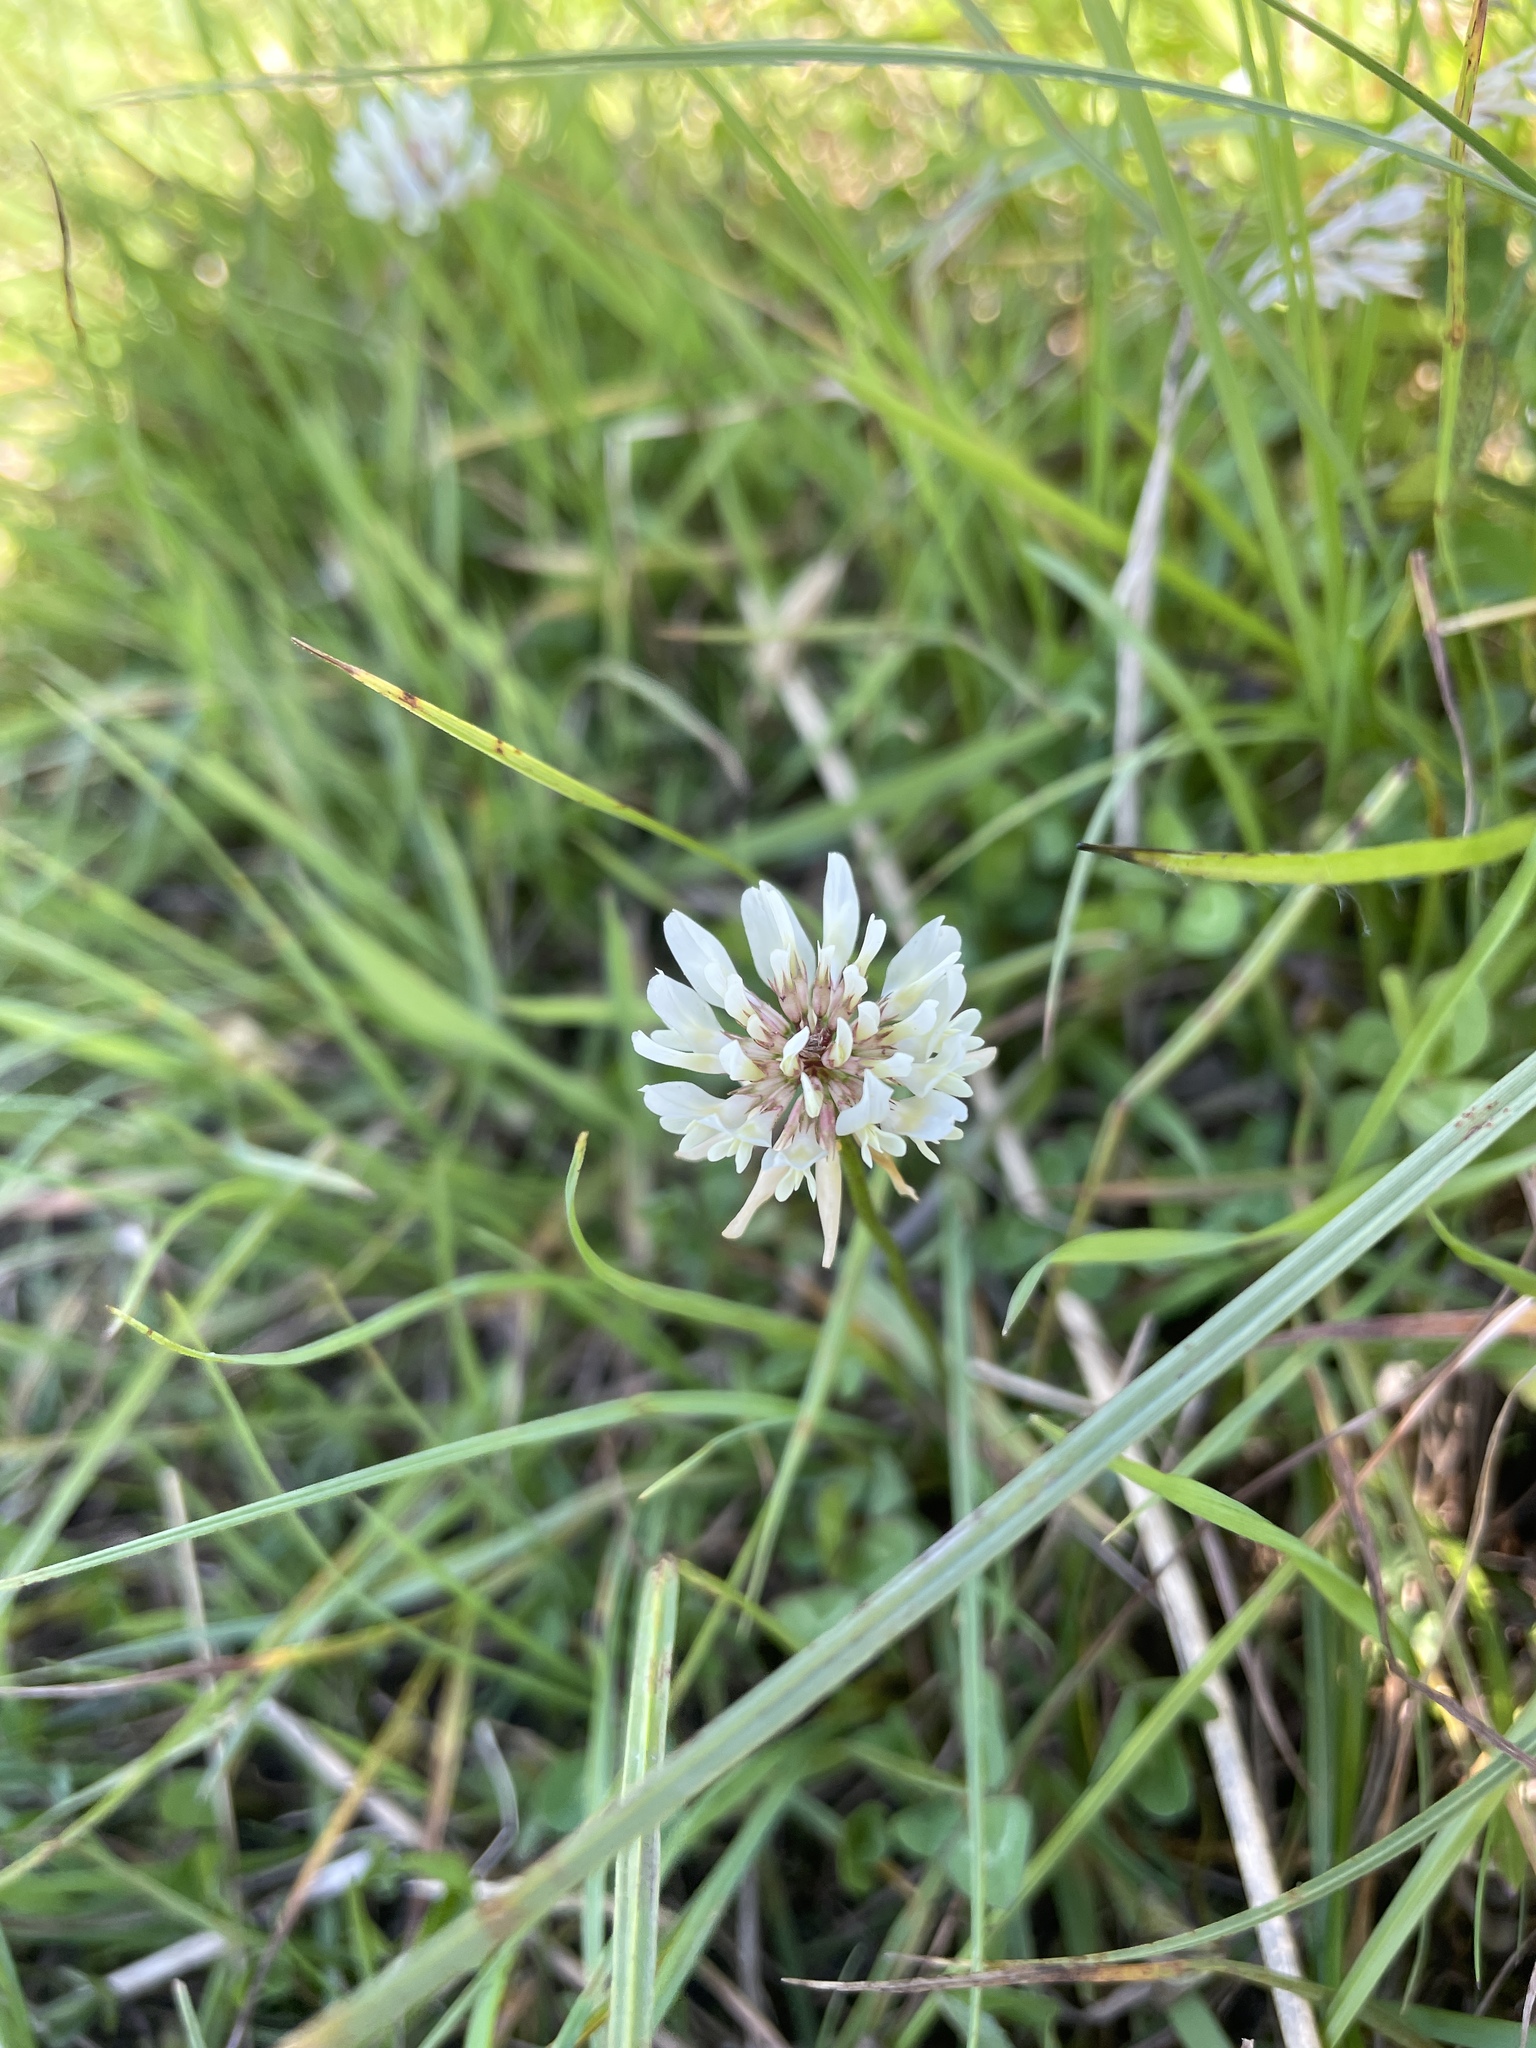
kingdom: Plantae
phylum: Tracheophyta
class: Magnoliopsida
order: Fabales
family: Fabaceae
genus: Trifolium
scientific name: Trifolium repens
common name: White clover
